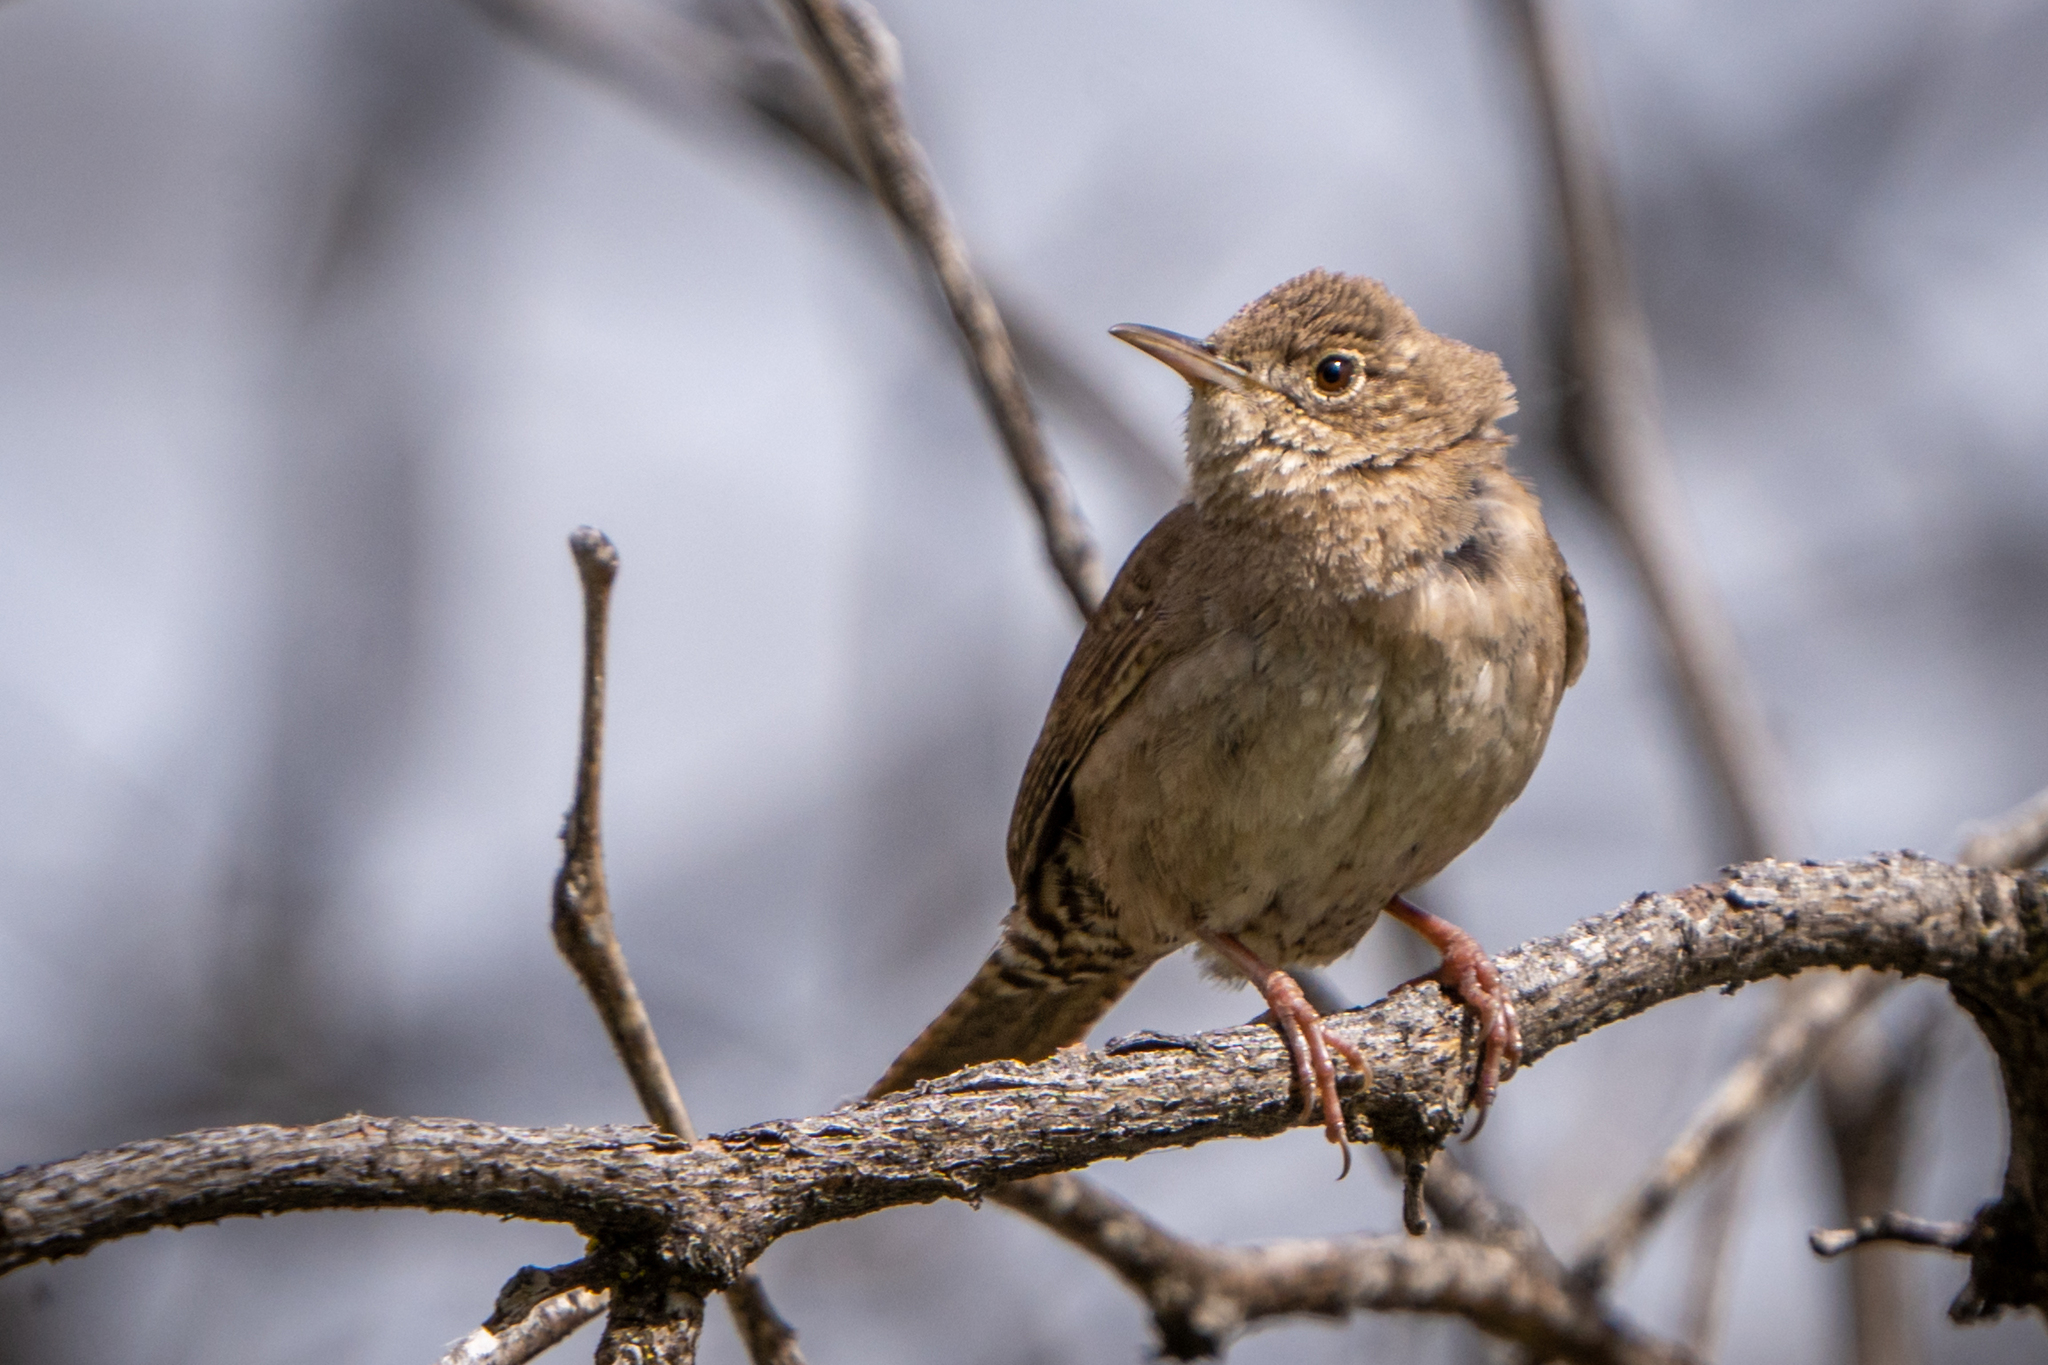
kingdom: Animalia
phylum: Chordata
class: Aves
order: Passeriformes
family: Troglodytidae
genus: Troglodytes
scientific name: Troglodytes aedon
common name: House wren
